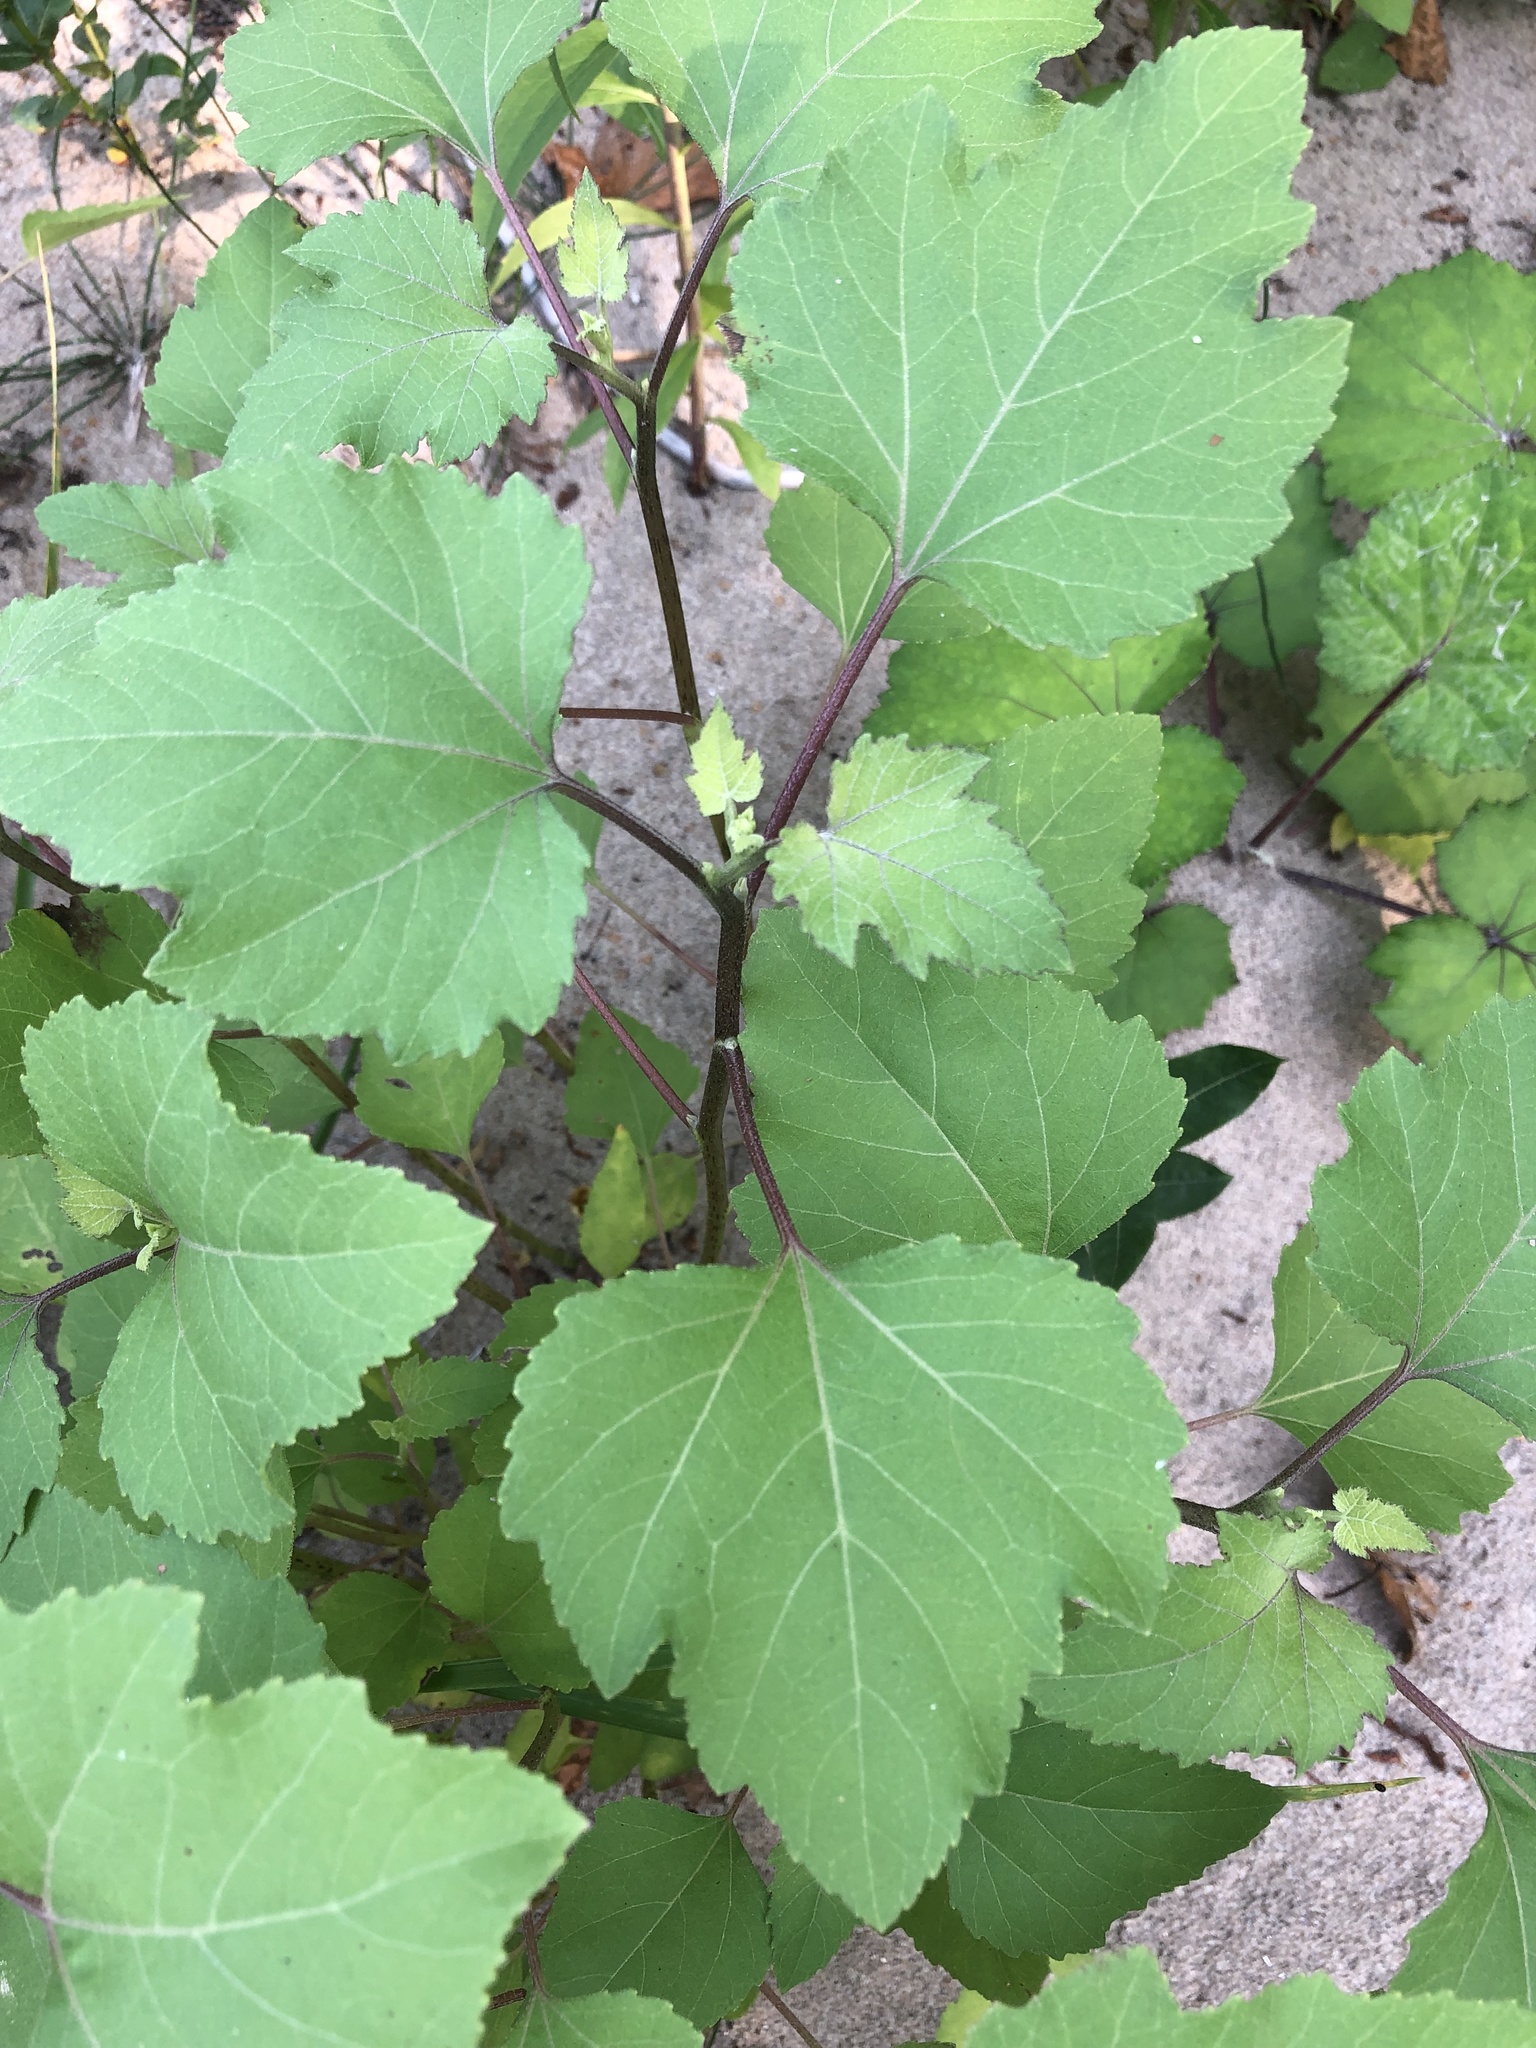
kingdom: Plantae
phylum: Tracheophyta
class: Magnoliopsida
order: Asterales
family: Asteraceae
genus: Xanthium
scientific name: Xanthium strumarium
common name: Rough cocklebur
